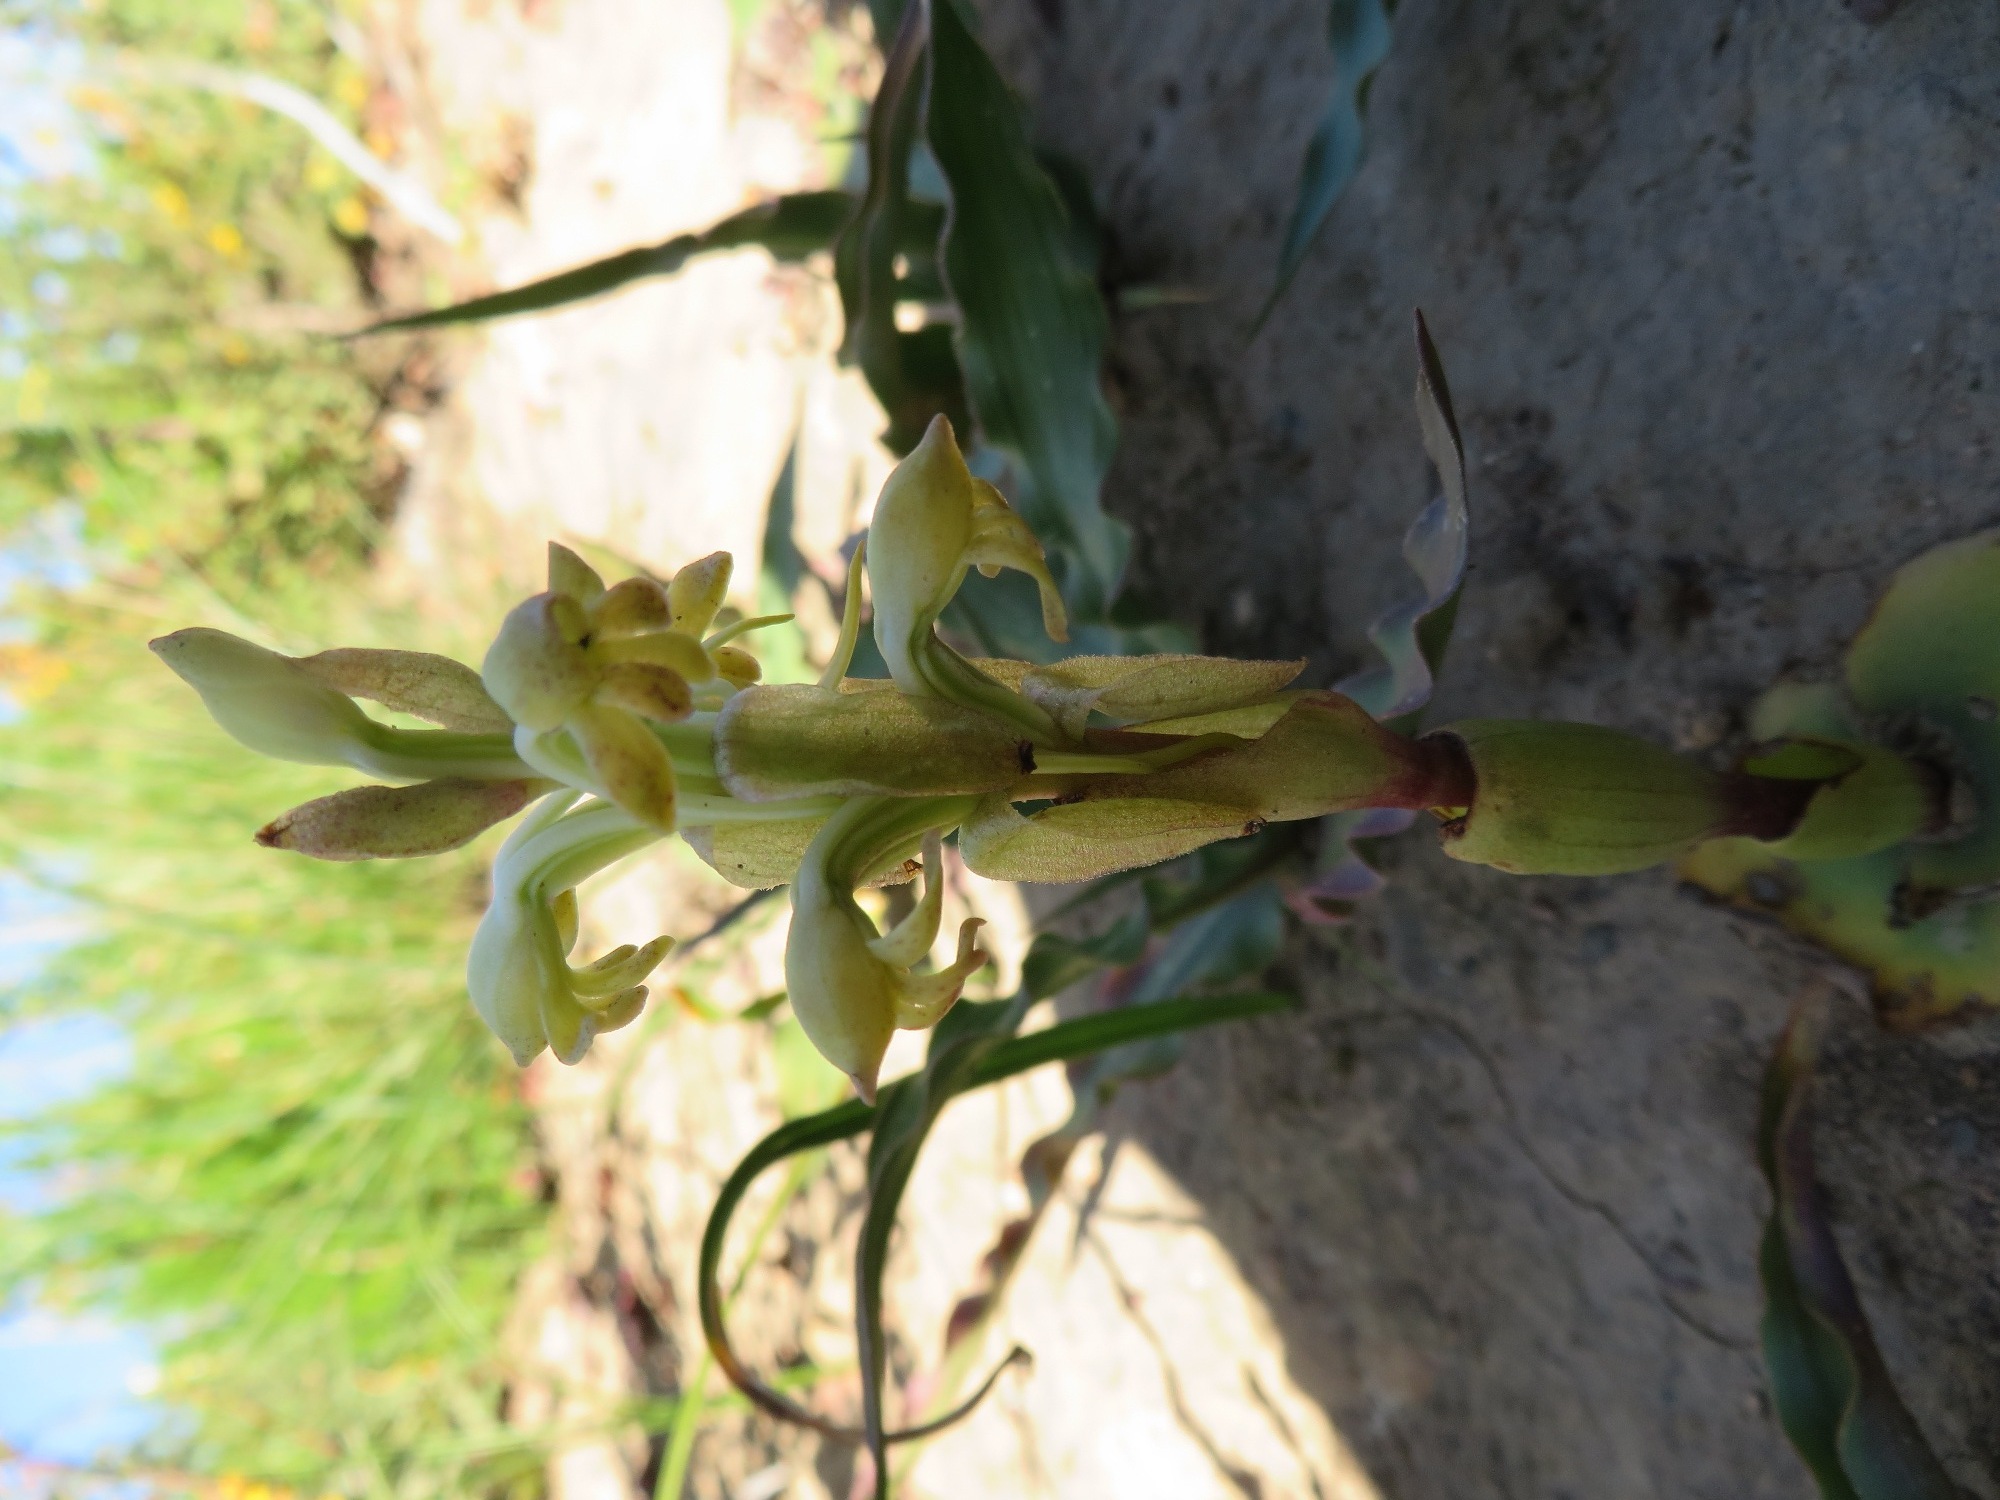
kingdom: Plantae
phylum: Tracheophyta
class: Liliopsida
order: Asparagales
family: Orchidaceae
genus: Satyrium
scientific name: Satyrium bicorne
